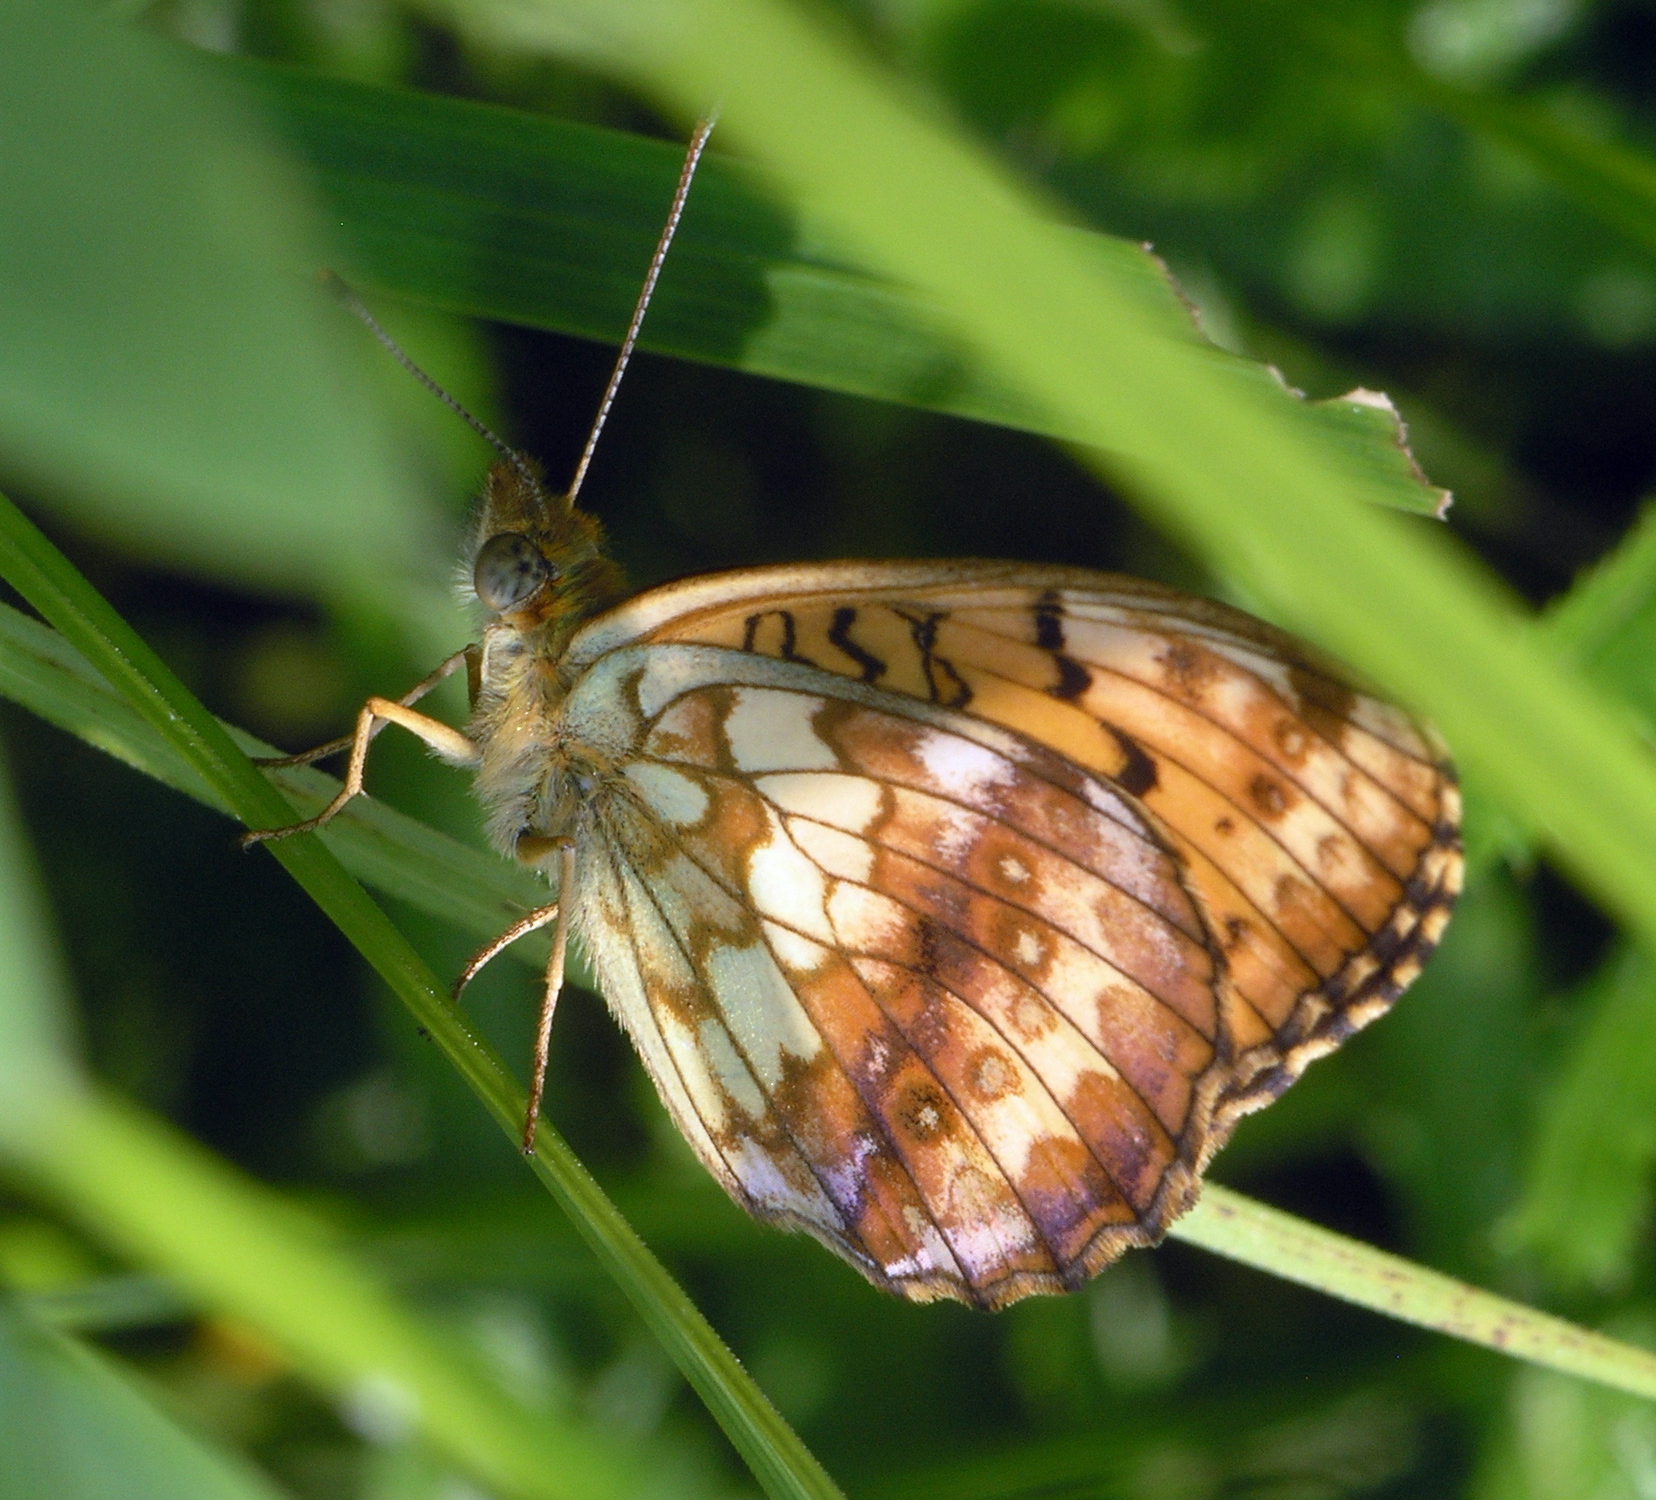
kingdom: Animalia
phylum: Arthropoda
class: Insecta
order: Lepidoptera
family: Nymphalidae
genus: Brenthis
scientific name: Brenthis ino
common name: Lesser marbled fritillary
